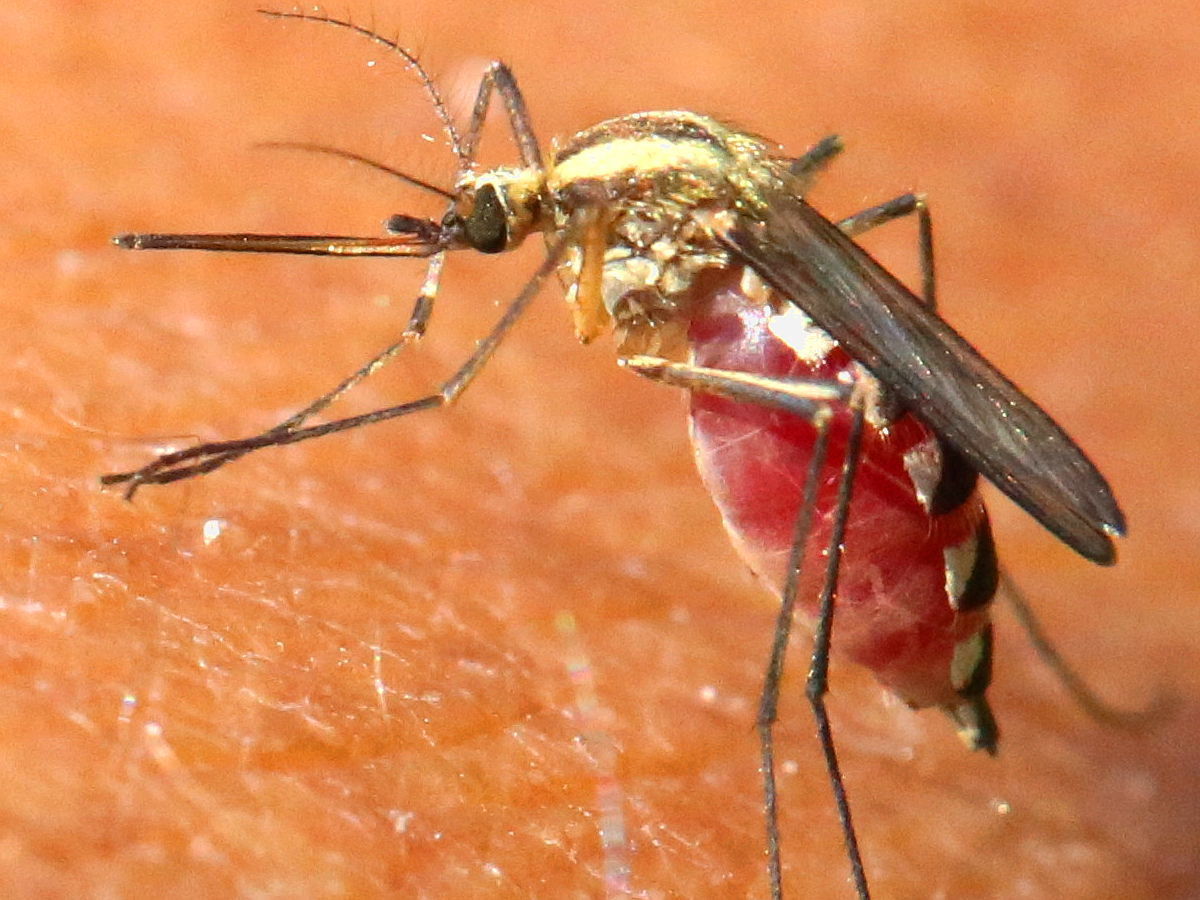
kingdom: Animalia
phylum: Arthropoda
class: Insecta
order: Diptera
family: Culicidae
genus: Aedes
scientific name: Aedes trivittatus
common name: Plains floodwater mosquito
